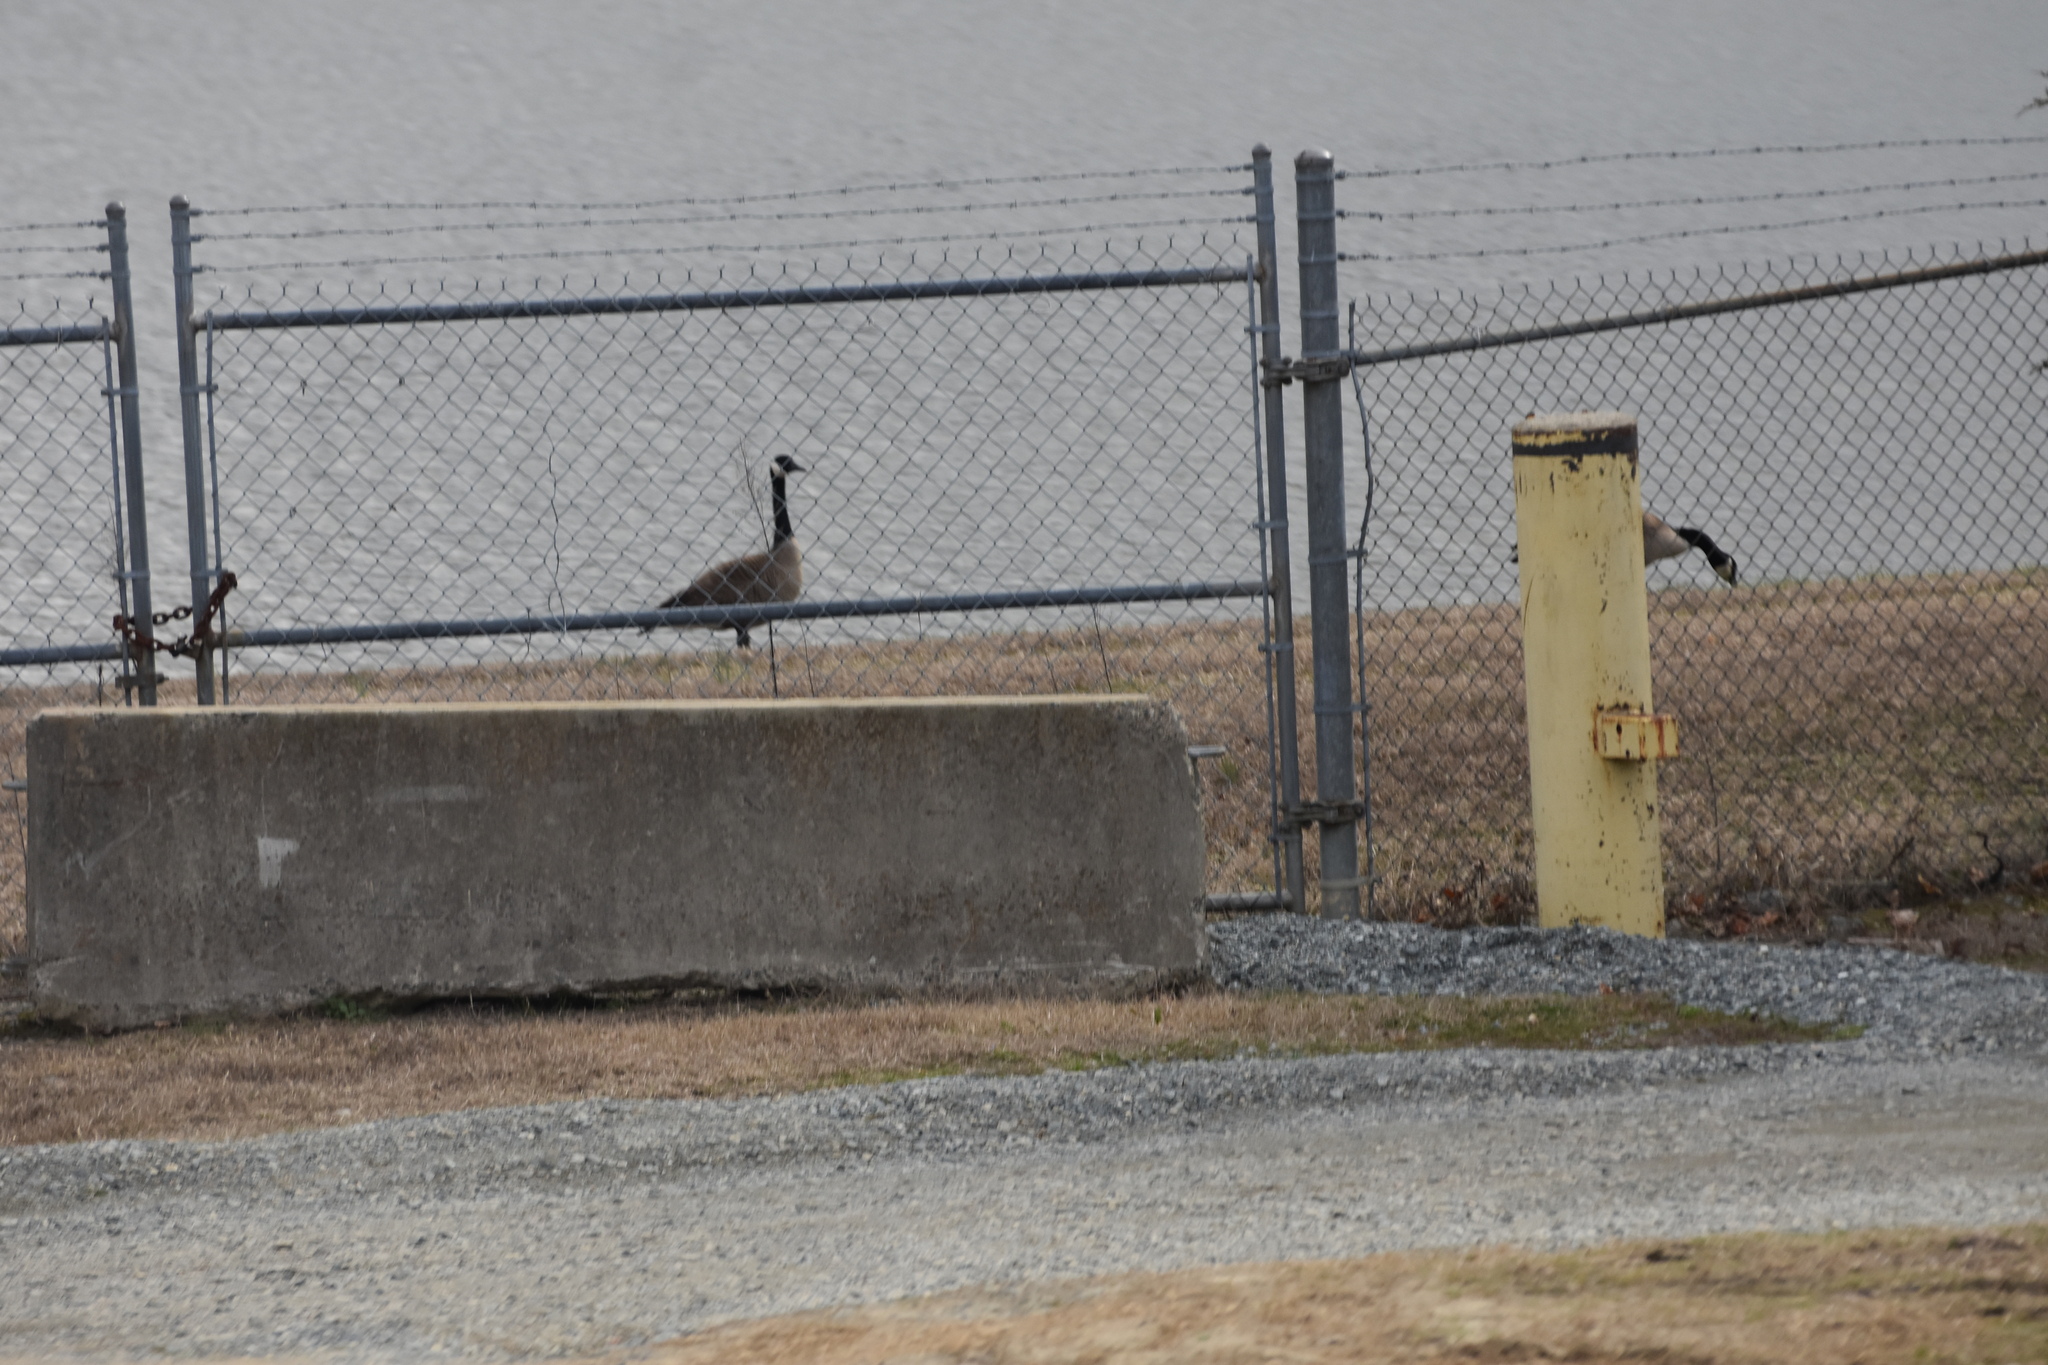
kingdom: Animalia
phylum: Chordata
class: Aves
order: Anseriformes
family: Anatidae
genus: Branta
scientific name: Branta canadensis
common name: Canada goose
